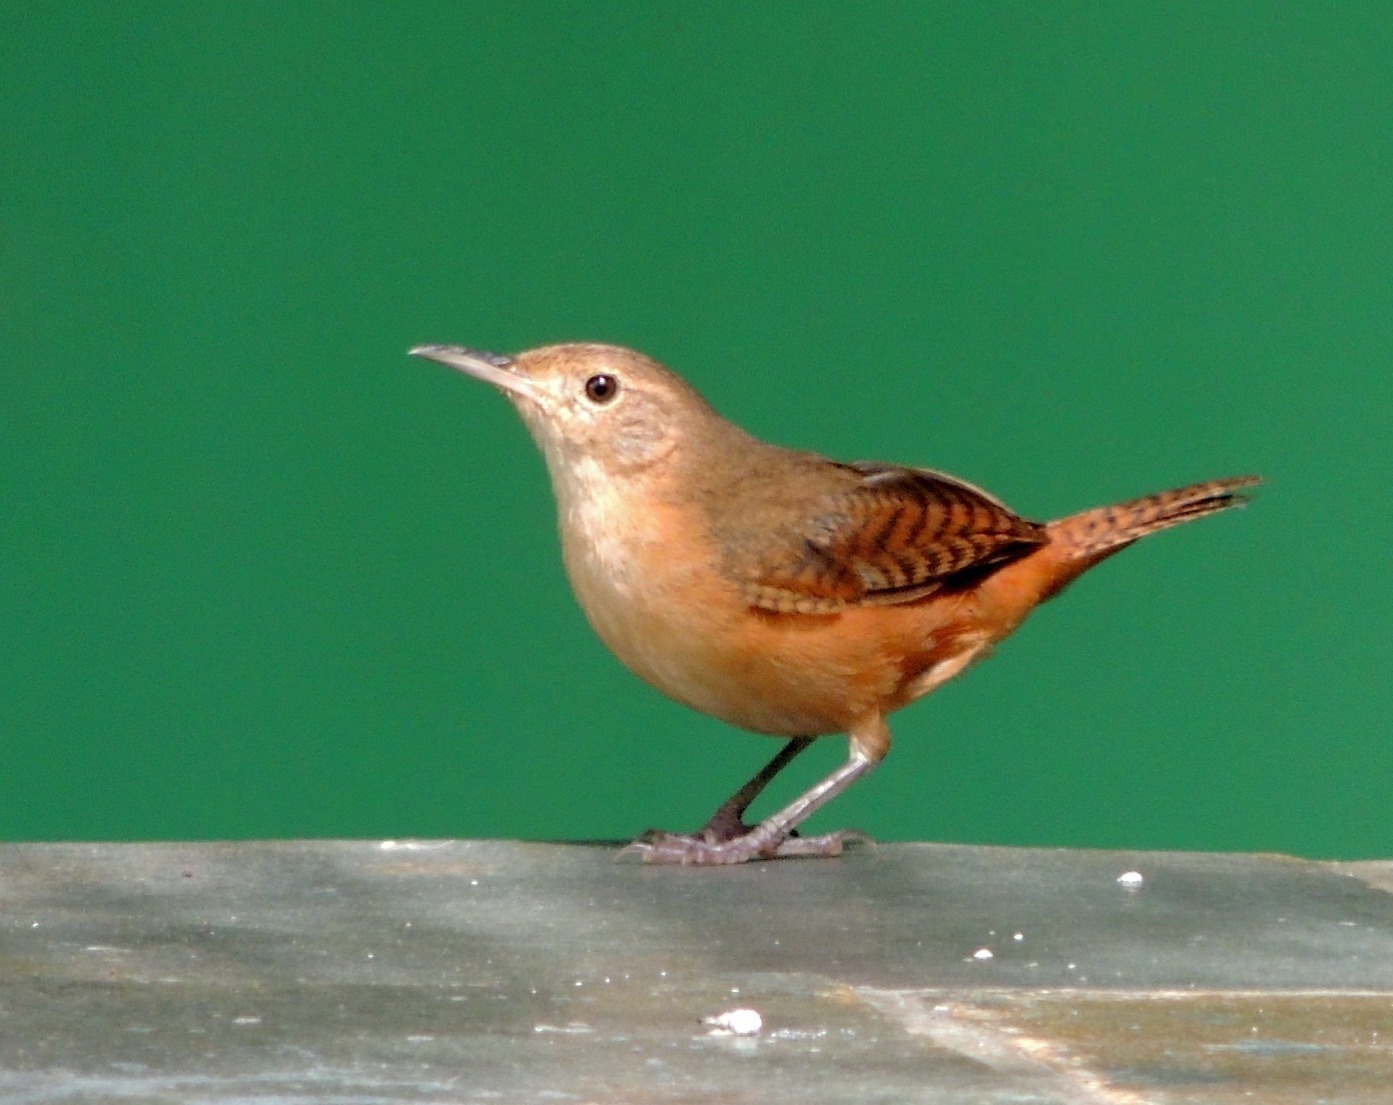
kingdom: Animalia
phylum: Chordata
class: Aves
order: Passeriformes
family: Troglodytidae
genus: Troglodytes
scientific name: Troglodytes aedon
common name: House wren
